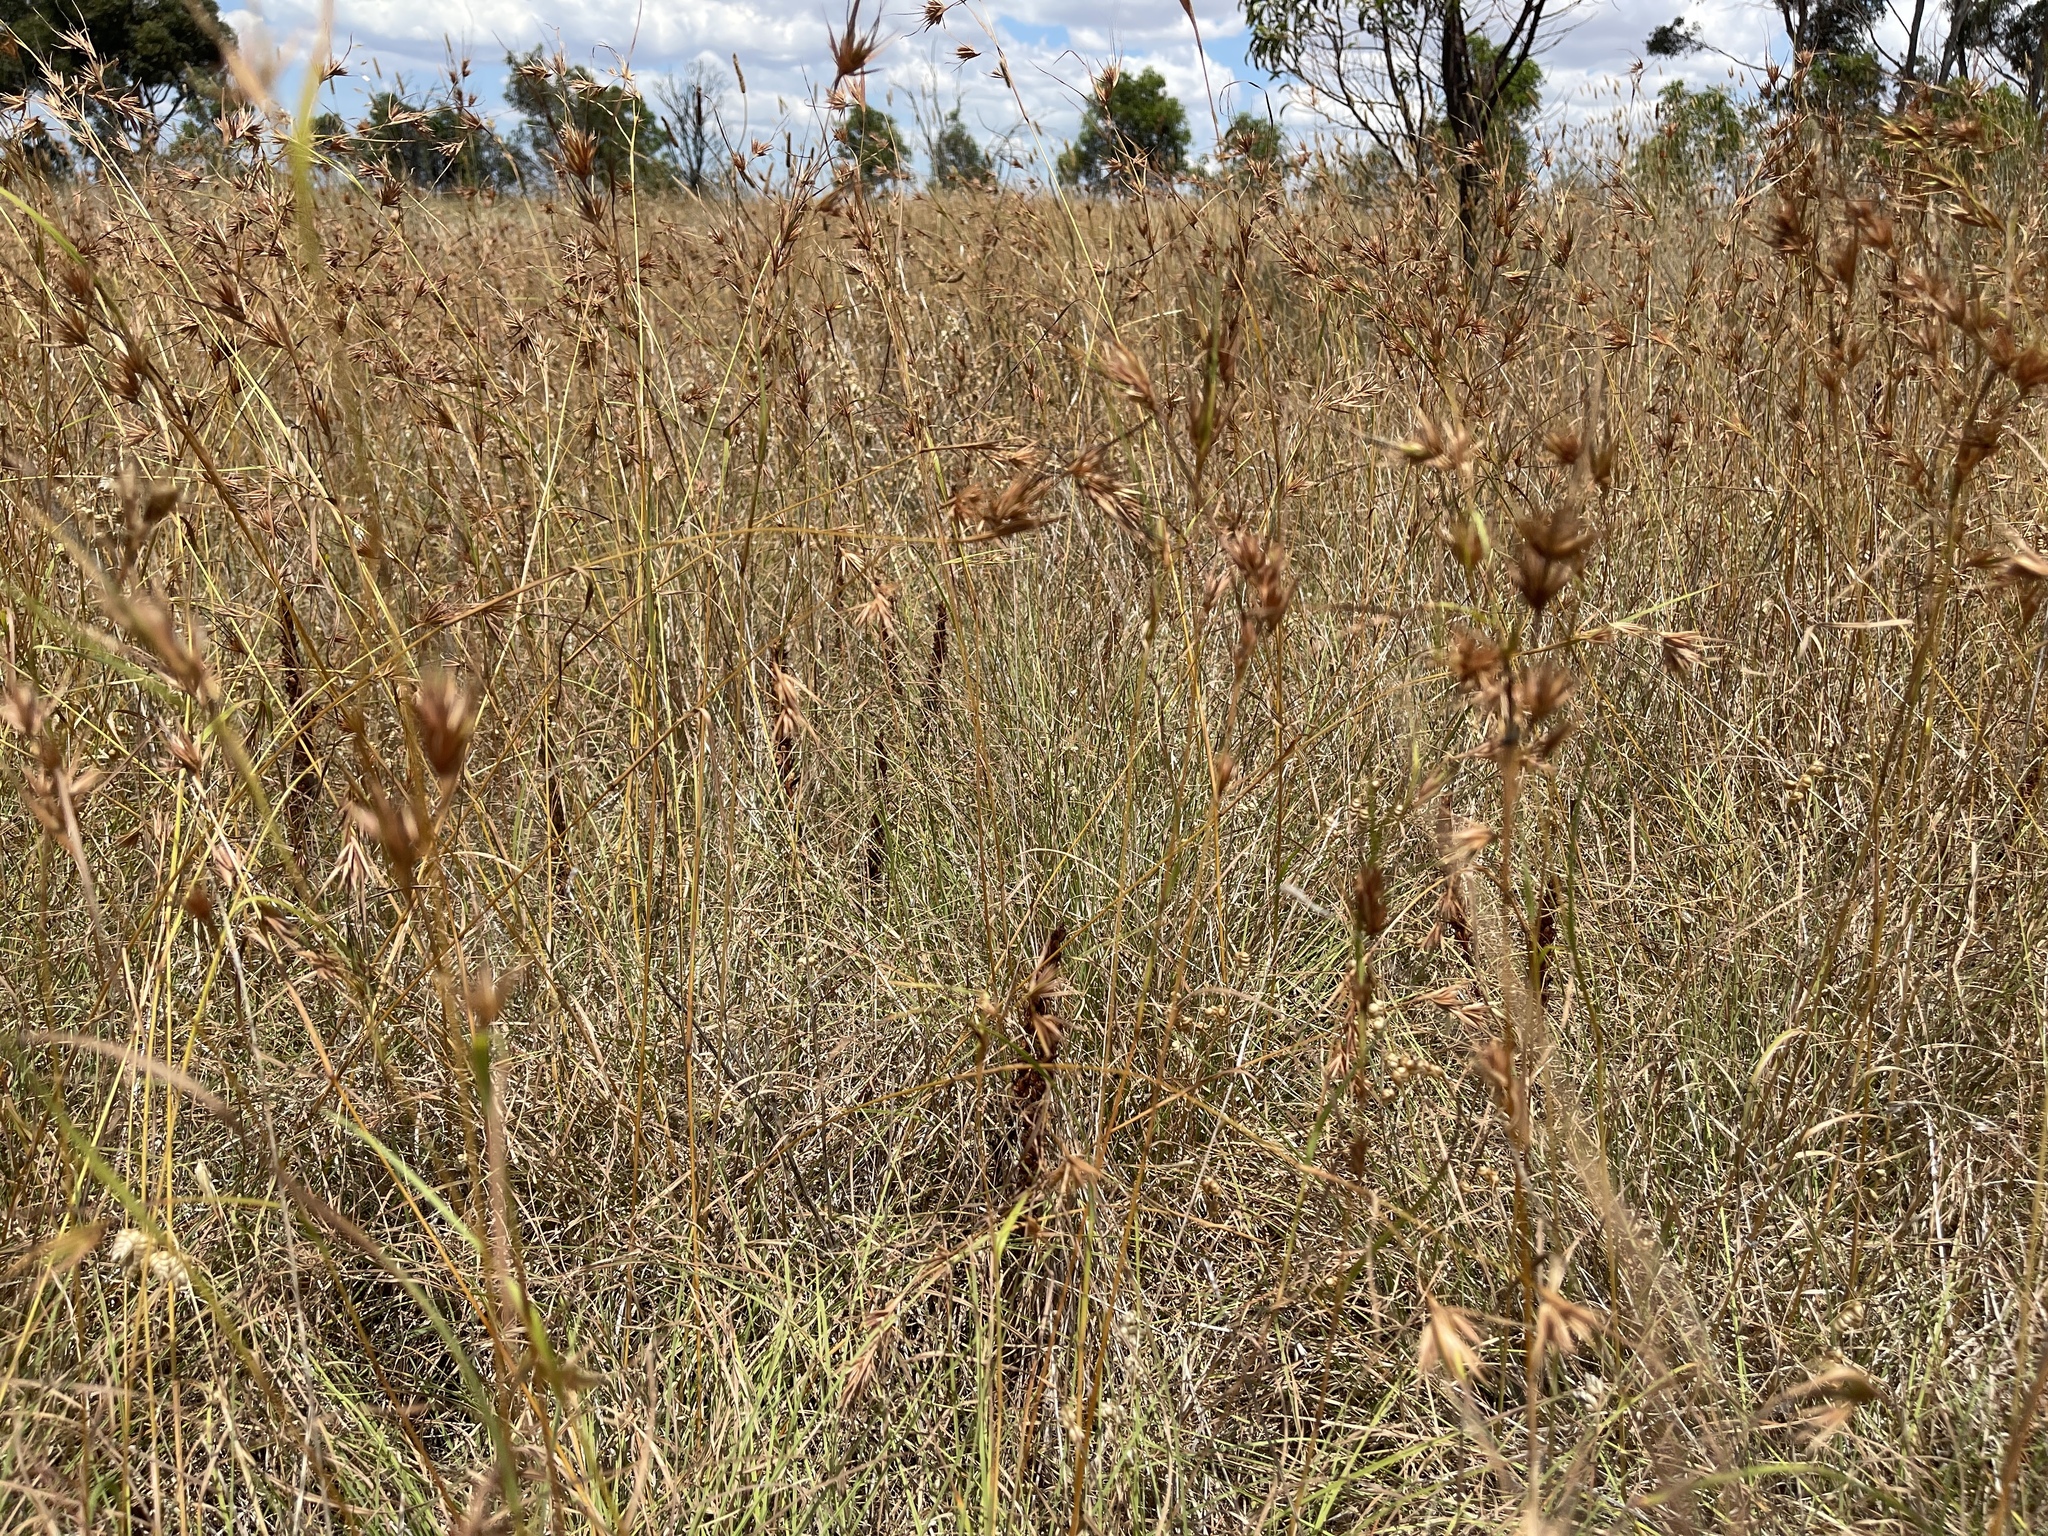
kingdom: Plantae
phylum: Tracheophyta
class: Liliopsida
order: Asparagales
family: Orchidaceae
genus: Disa
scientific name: Disa bracteata
